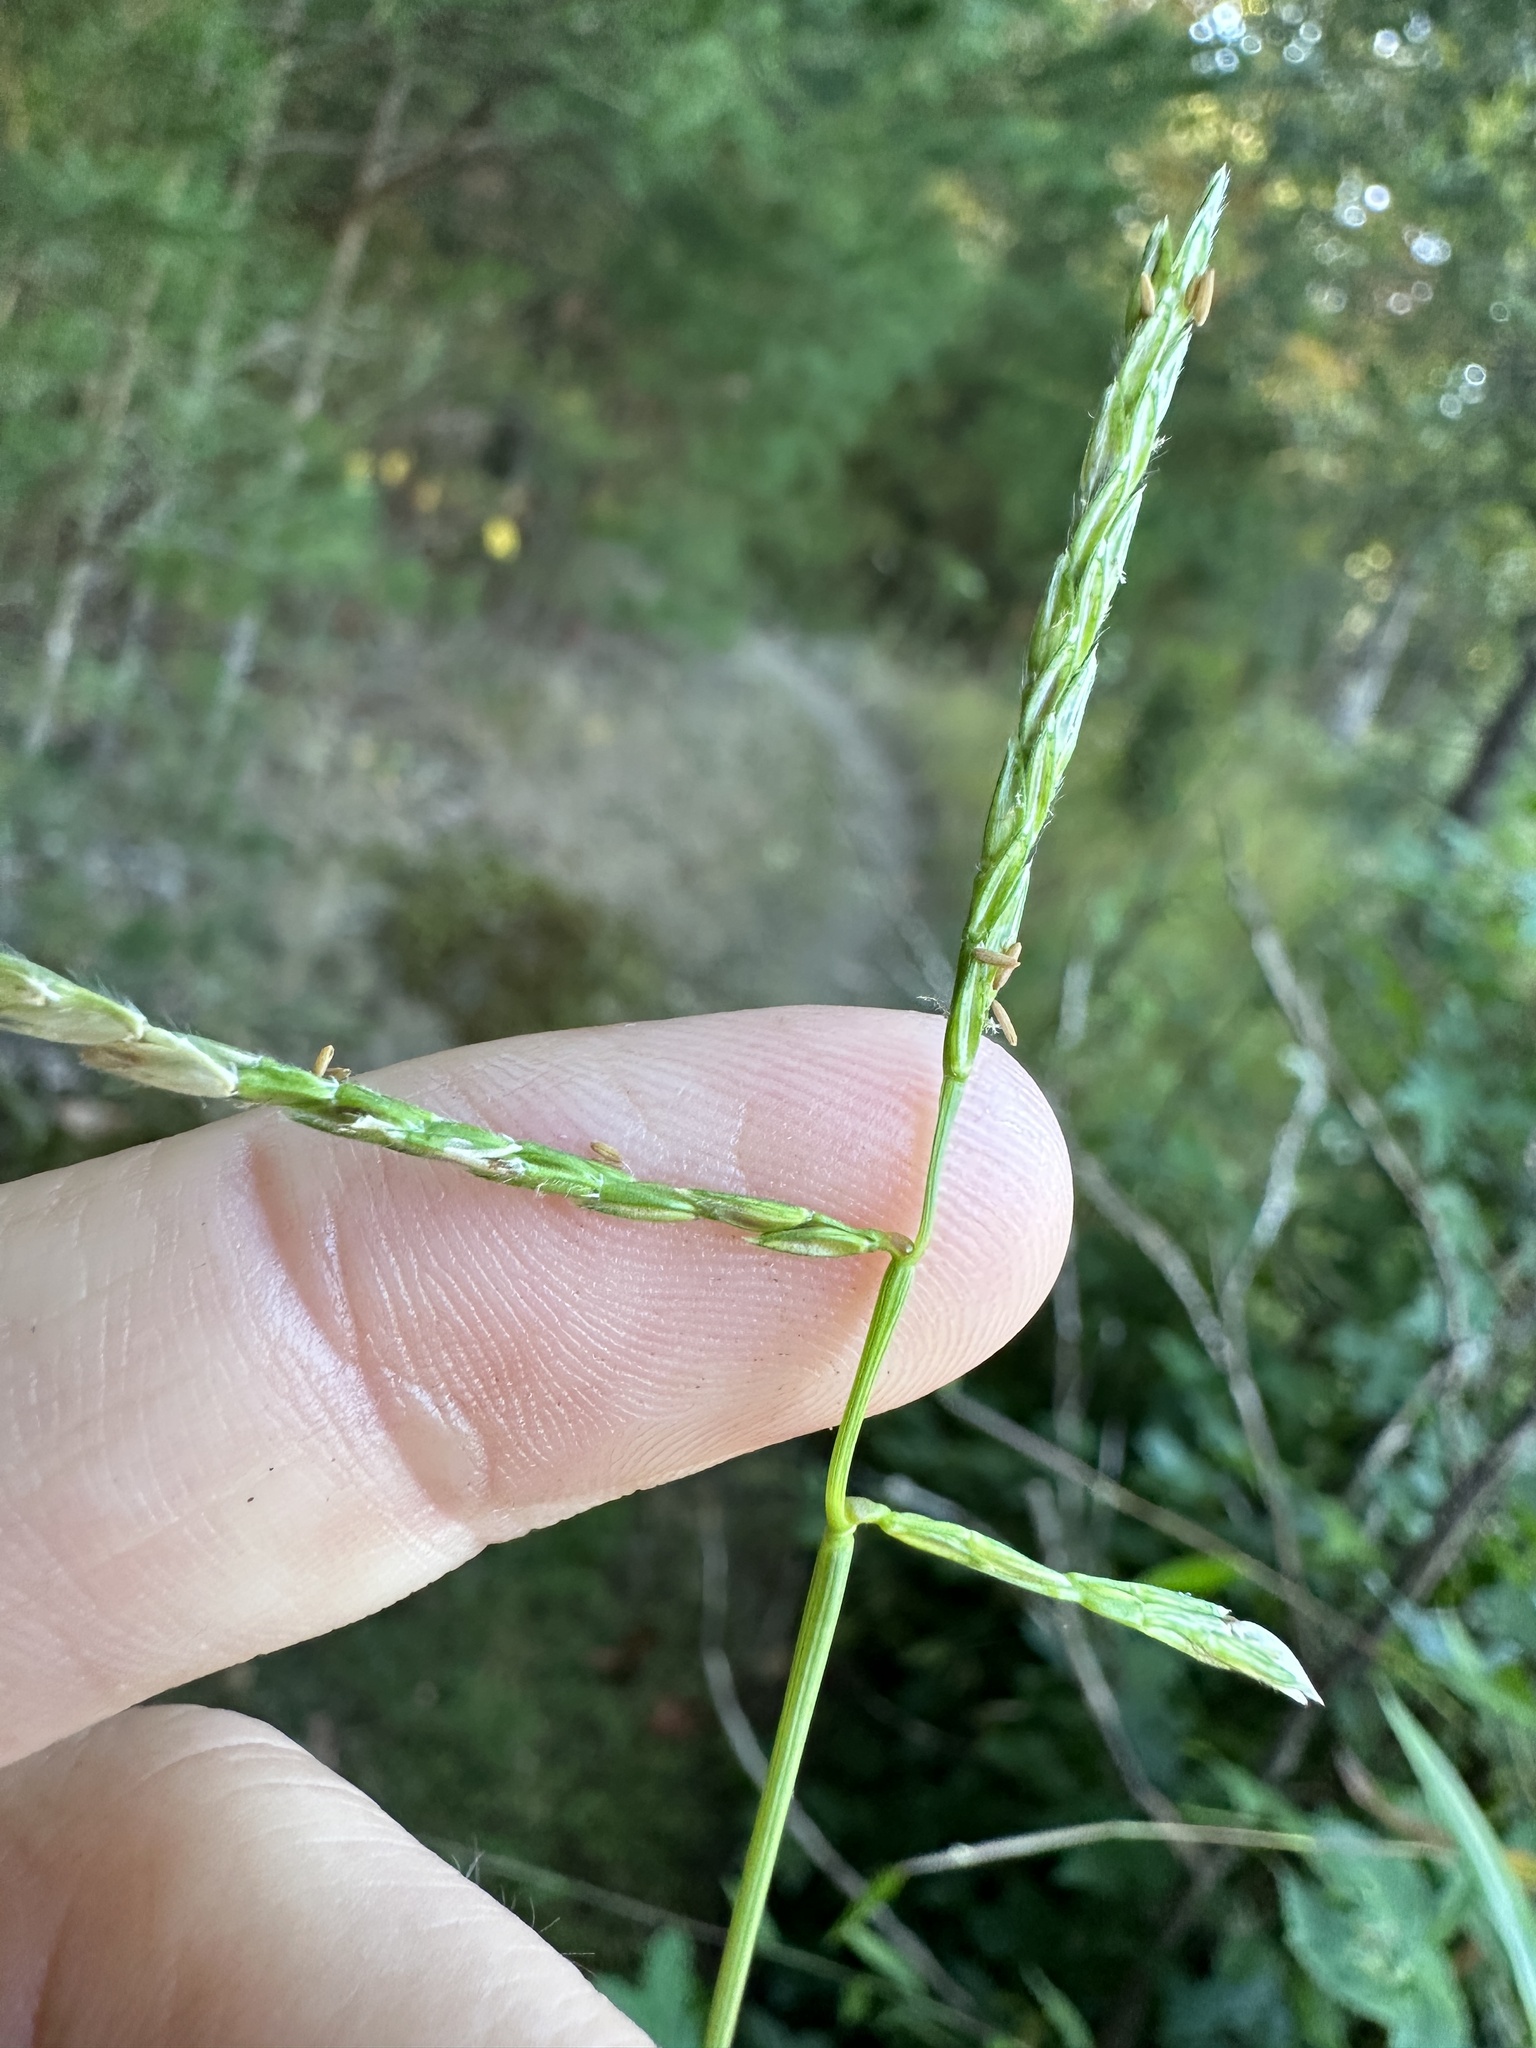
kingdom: Plantae
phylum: Tracheophyta
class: Liliopsida
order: Poales
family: Poaceae
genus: Microstegium
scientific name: Microstegium vimineum
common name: Japanese stiltgrass
